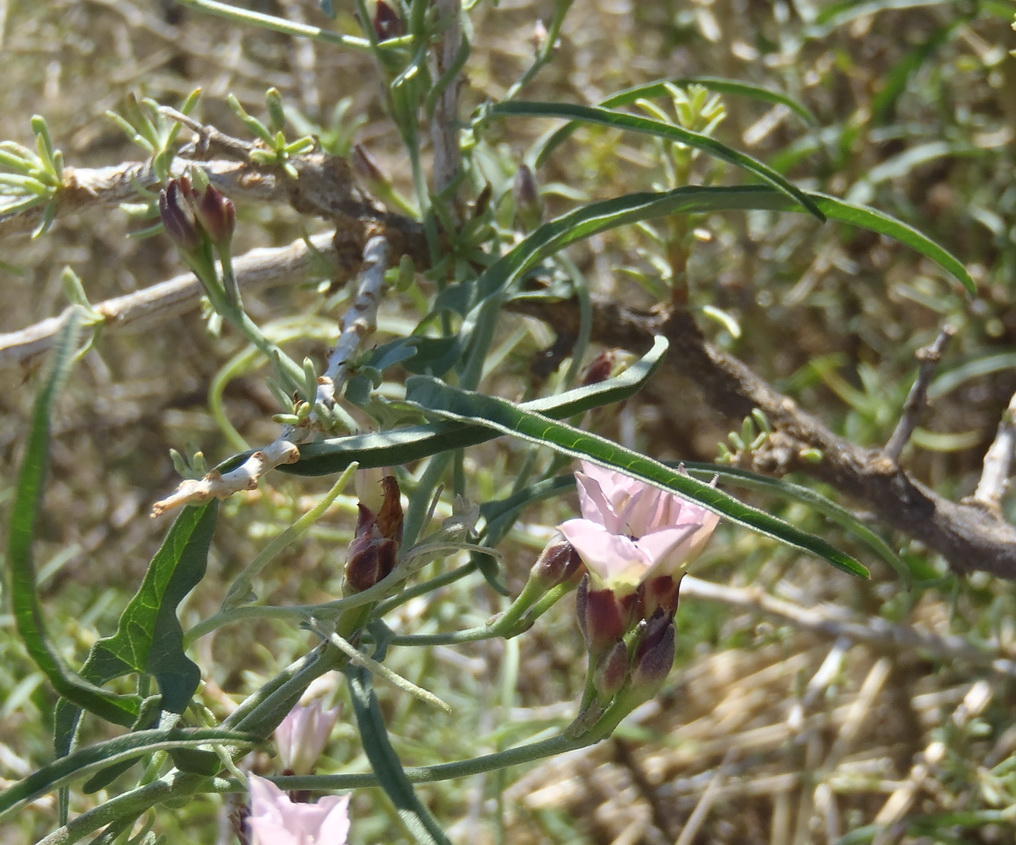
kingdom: Plantae
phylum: Tracheophyta
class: Magnoliopsida
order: Solanales
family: Convolvulaceae
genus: Convolvulus
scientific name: Convolvulus sagittatus
